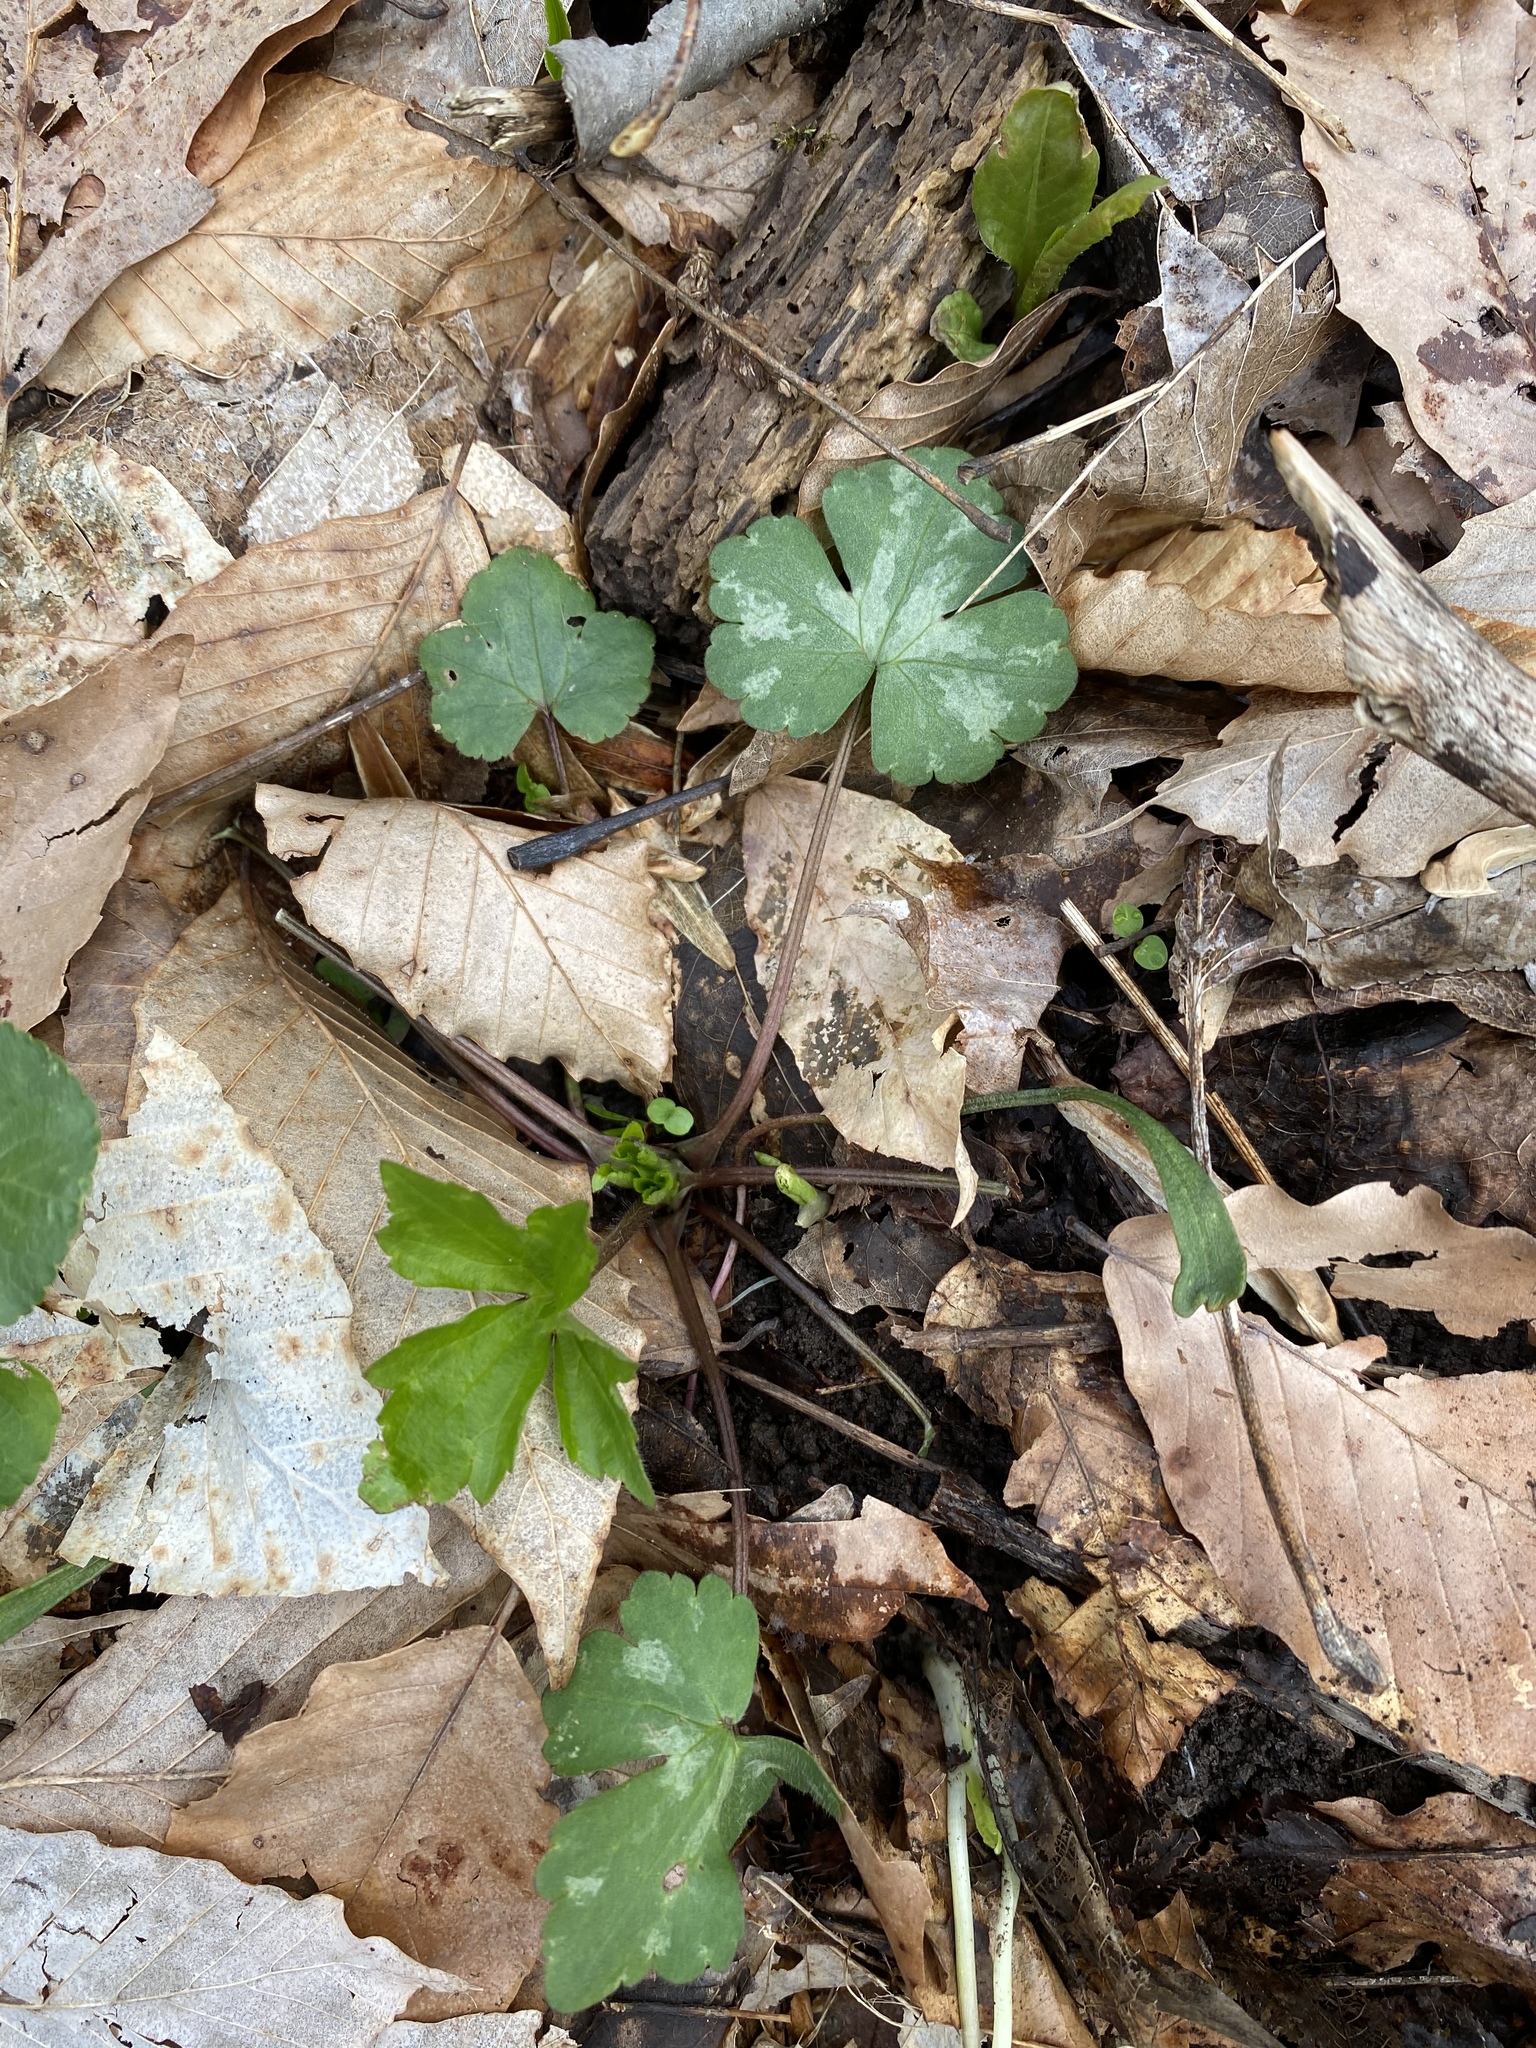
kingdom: Plantae
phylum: Tracheophyta
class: Magnoliopsida
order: Ranunculales
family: Ranunculaceae
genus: Ranunculus
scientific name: Ranunculus recurvatus
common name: Blisterwort
